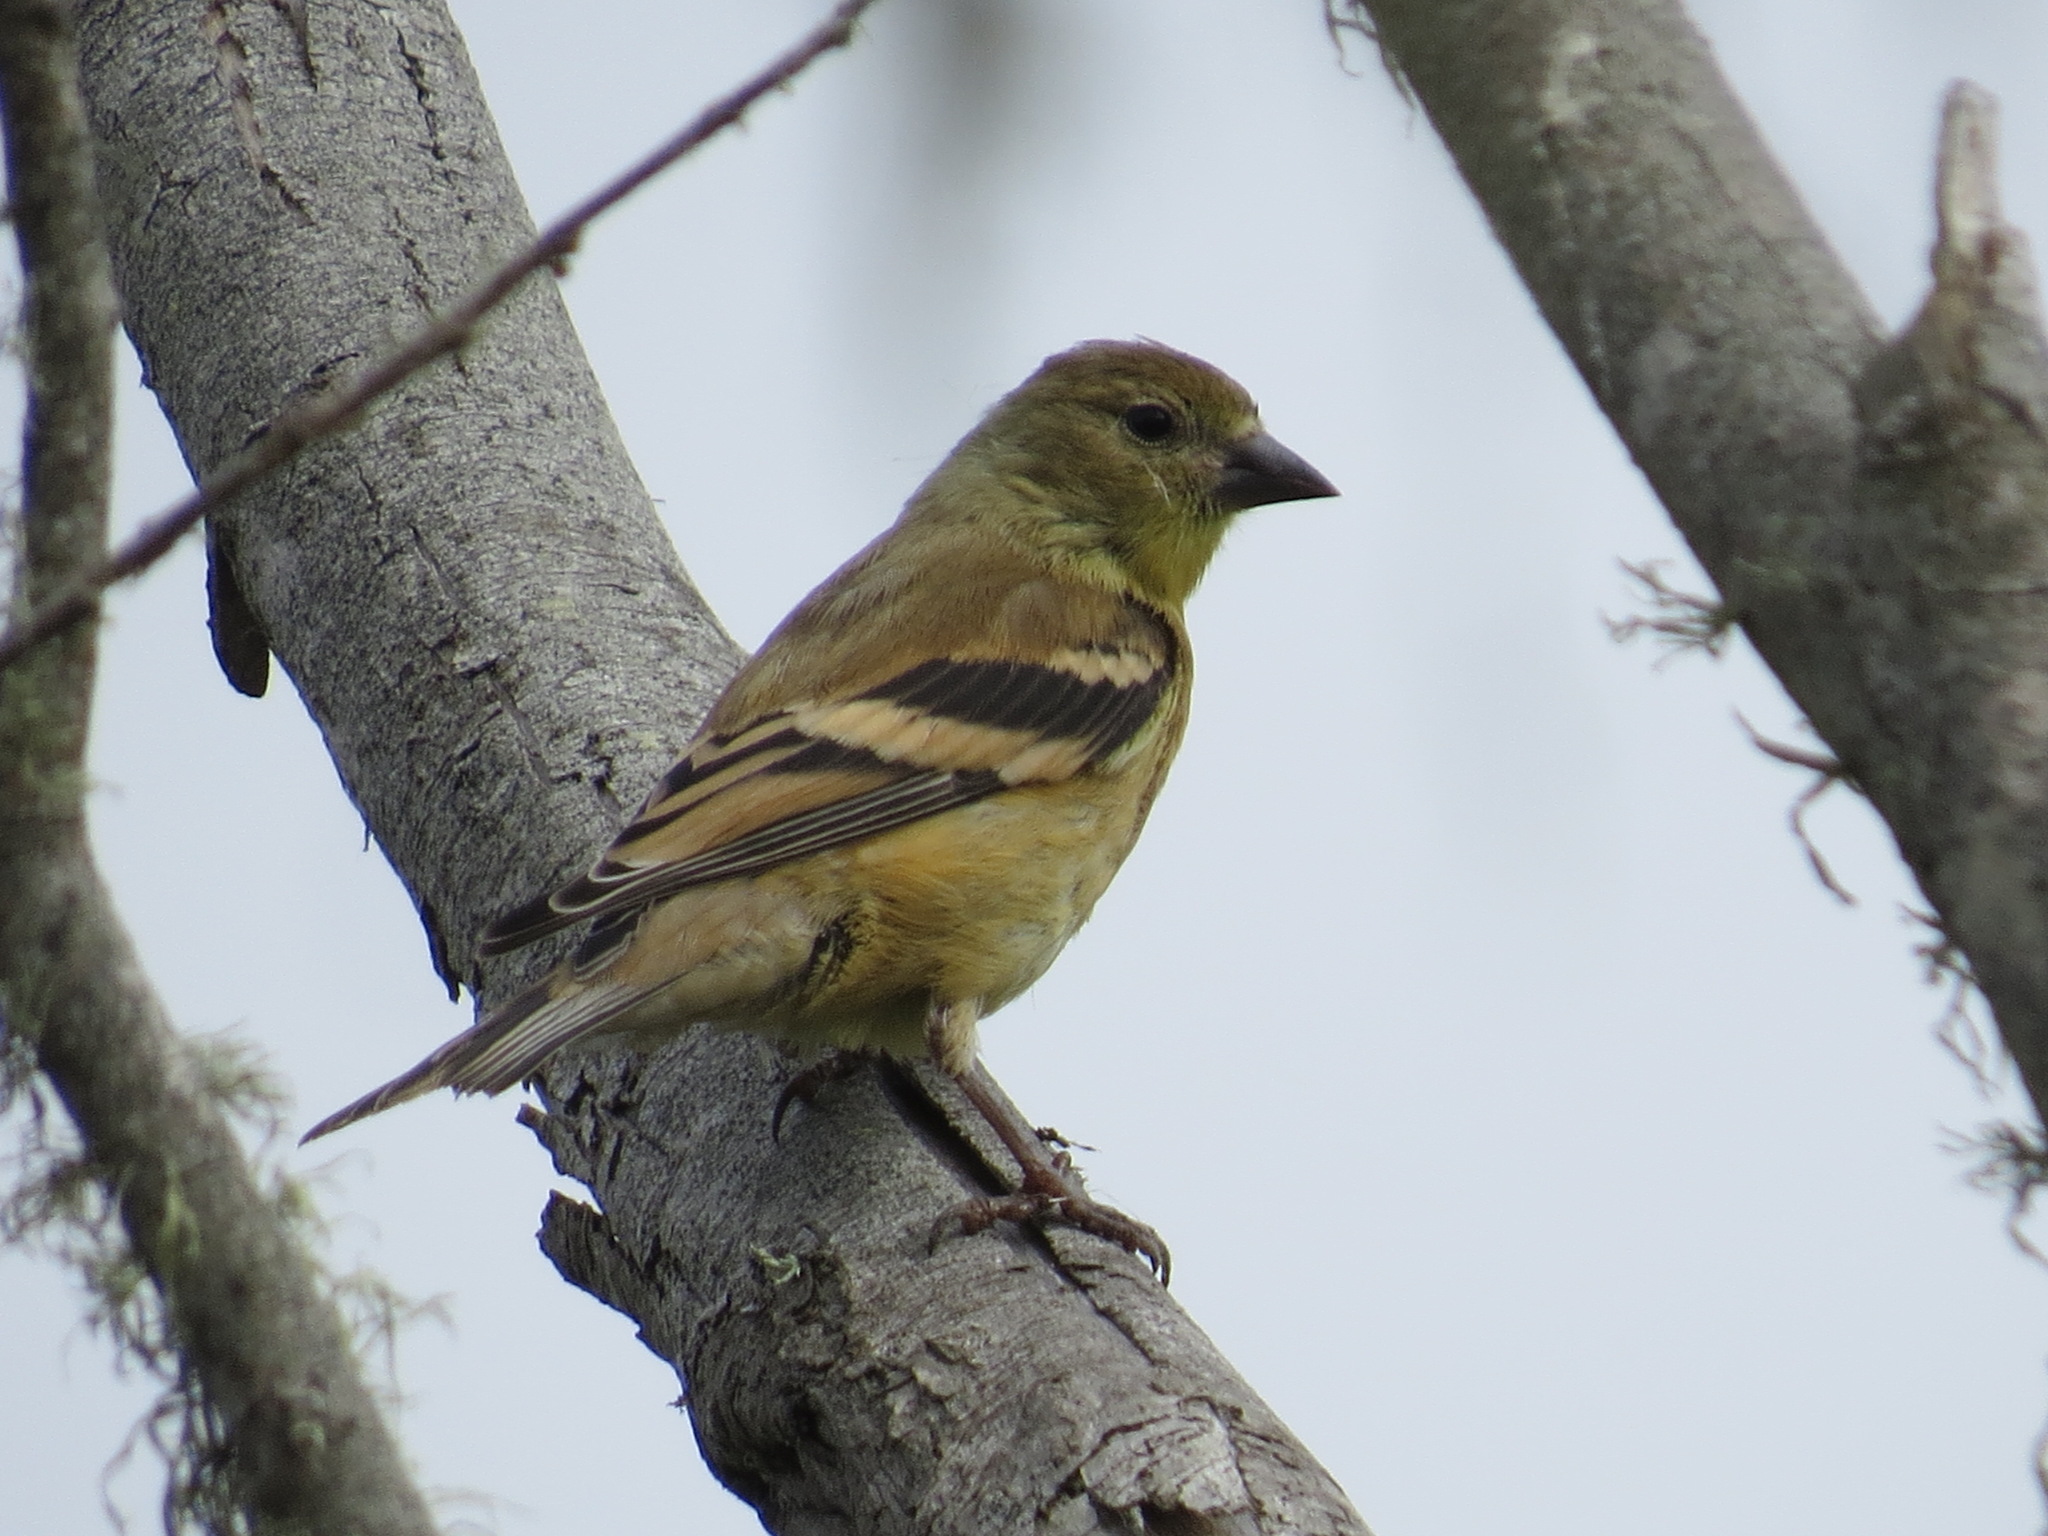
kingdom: Animalia
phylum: Chordata
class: Aves
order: Passeriformes
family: Fringillidae
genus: Spinus
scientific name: Spinus tristis
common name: American goldfinch
